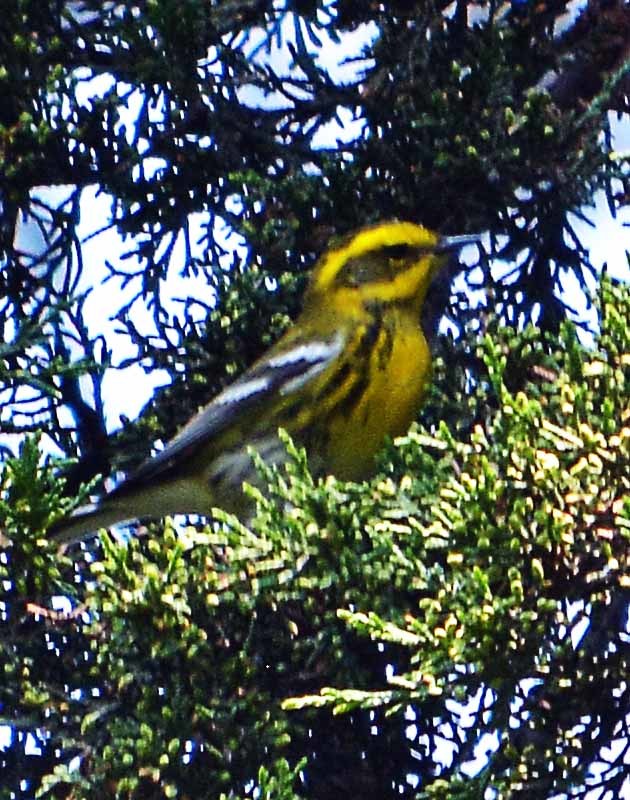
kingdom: Animalia
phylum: Chordata
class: Aves
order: Passeriformes
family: Parulidae
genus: Setophaga
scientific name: Setophaga townsendi
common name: Townsend's warbler
